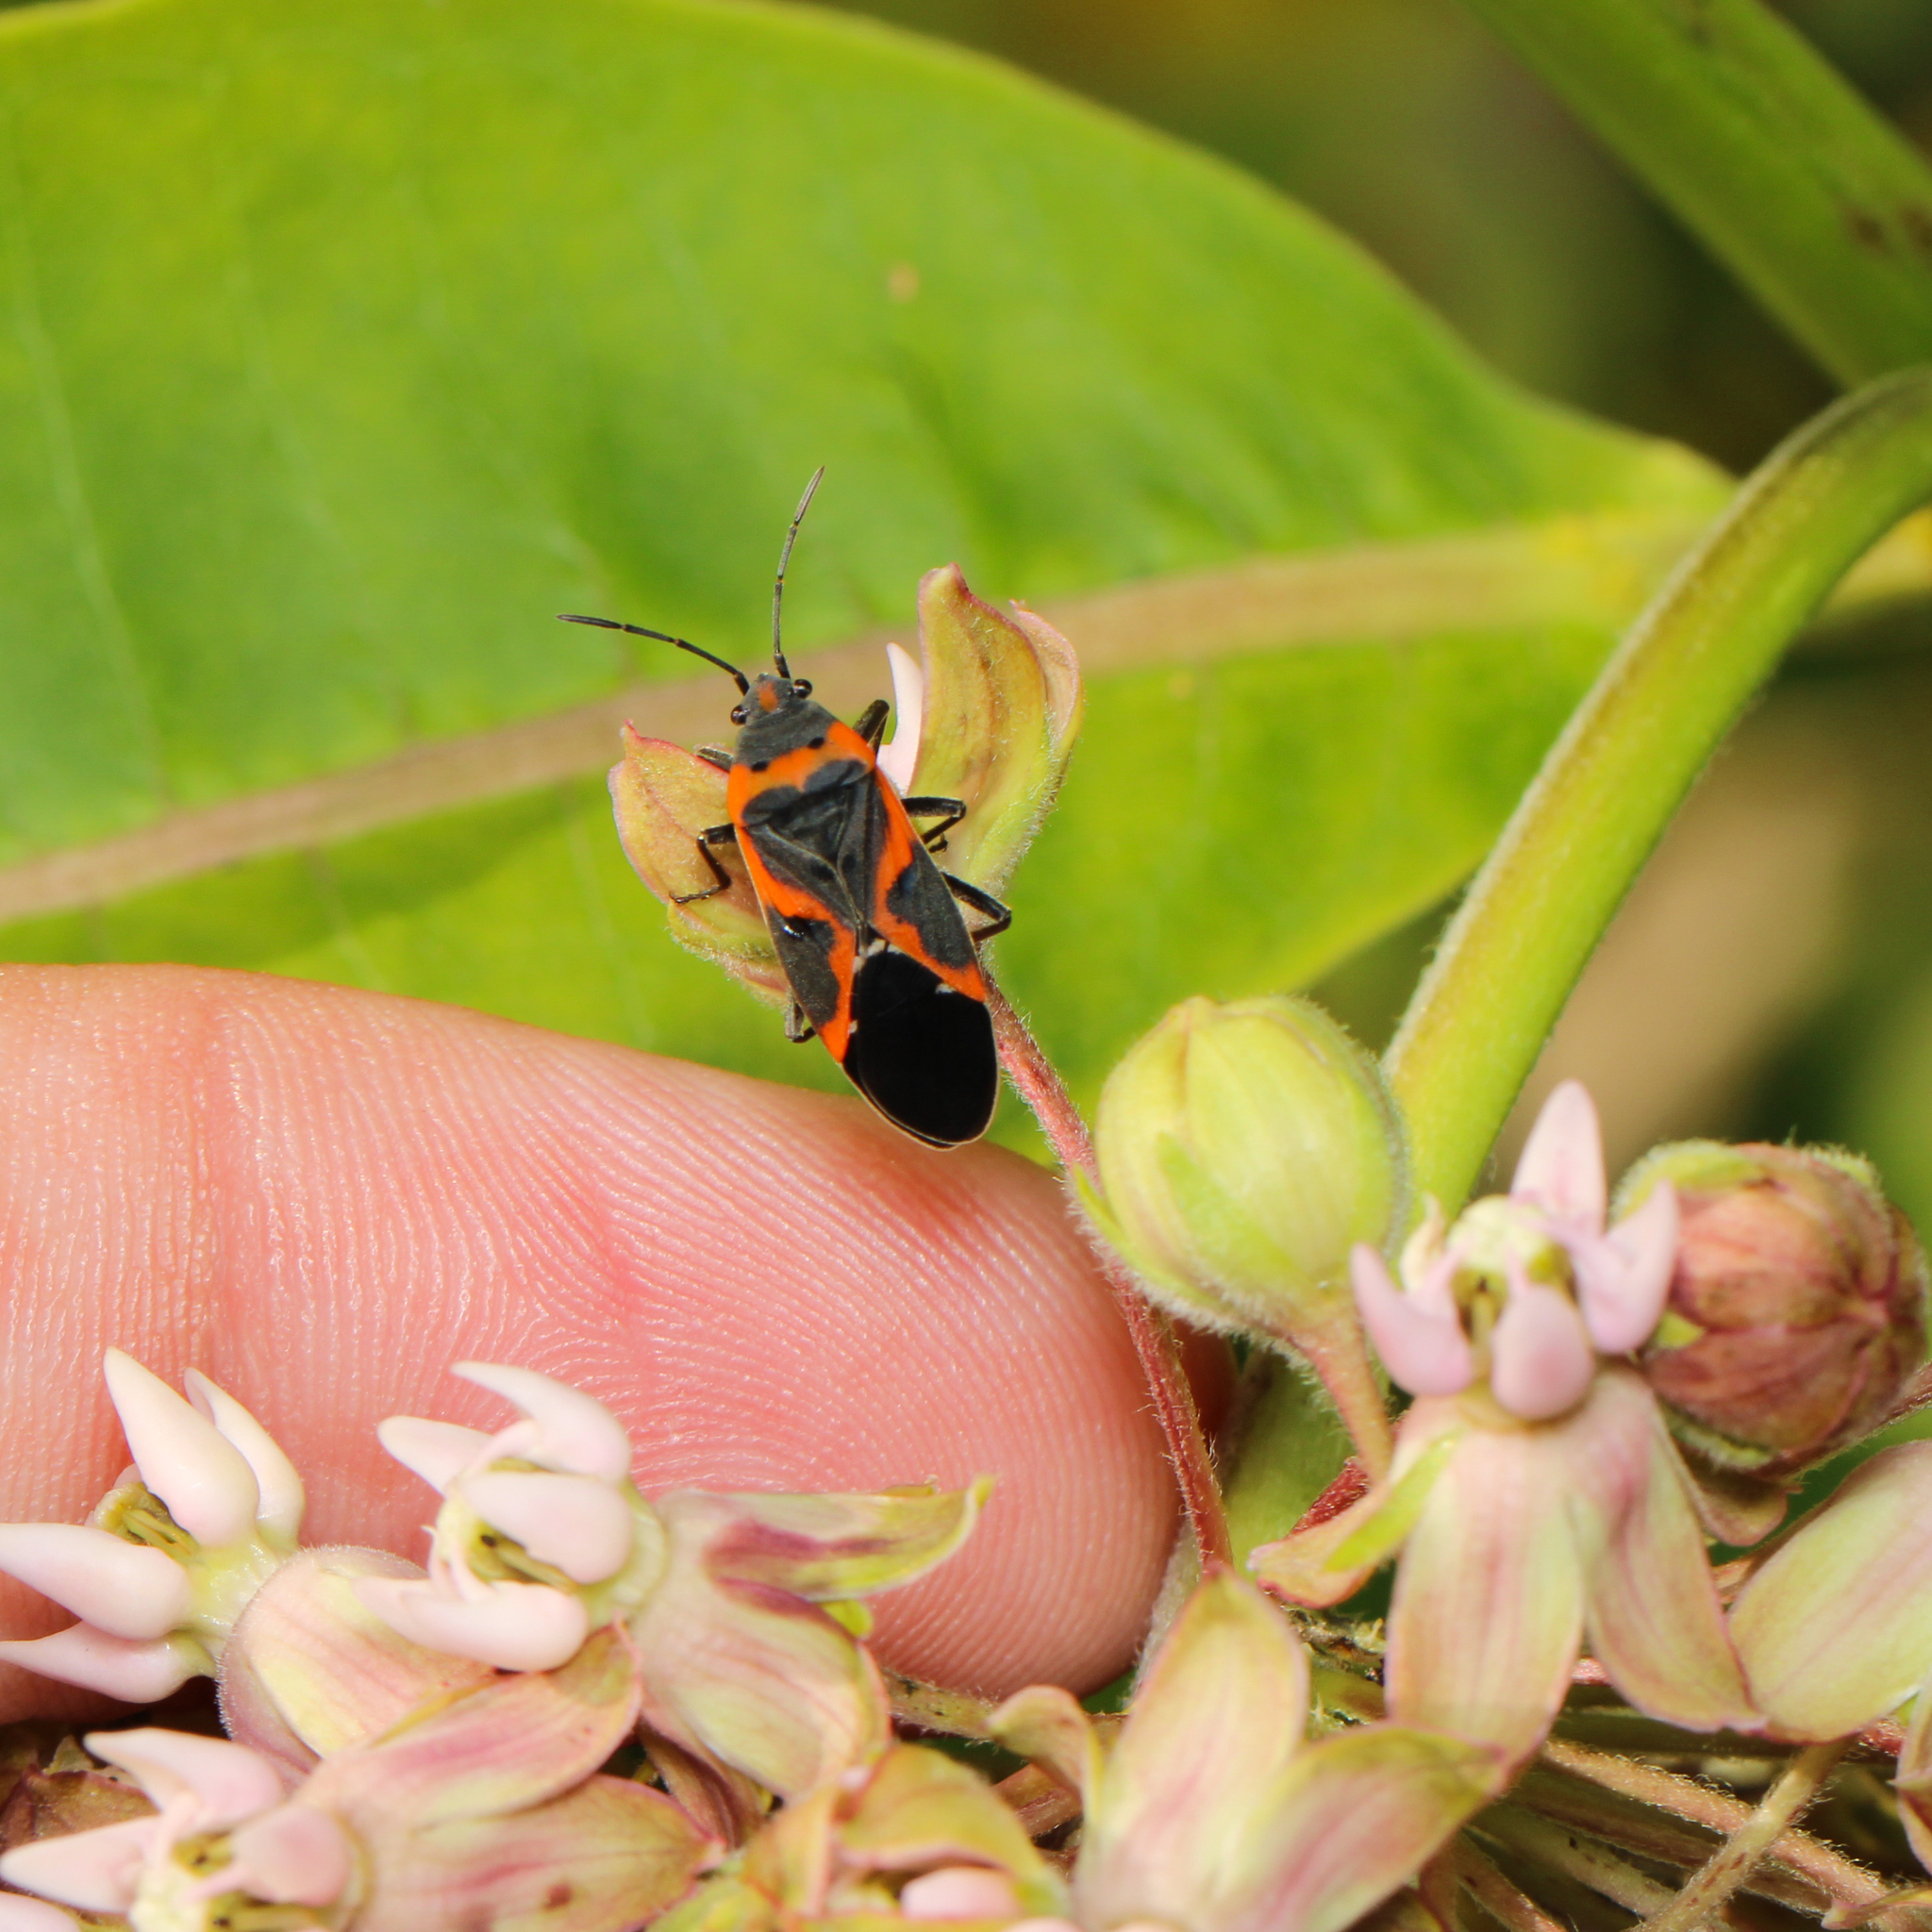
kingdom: Animalia
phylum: Arthropoda
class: Insecta
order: Hemiptera
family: Lygaeidae
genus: Lygaeus
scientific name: Lygaeus kalmii
